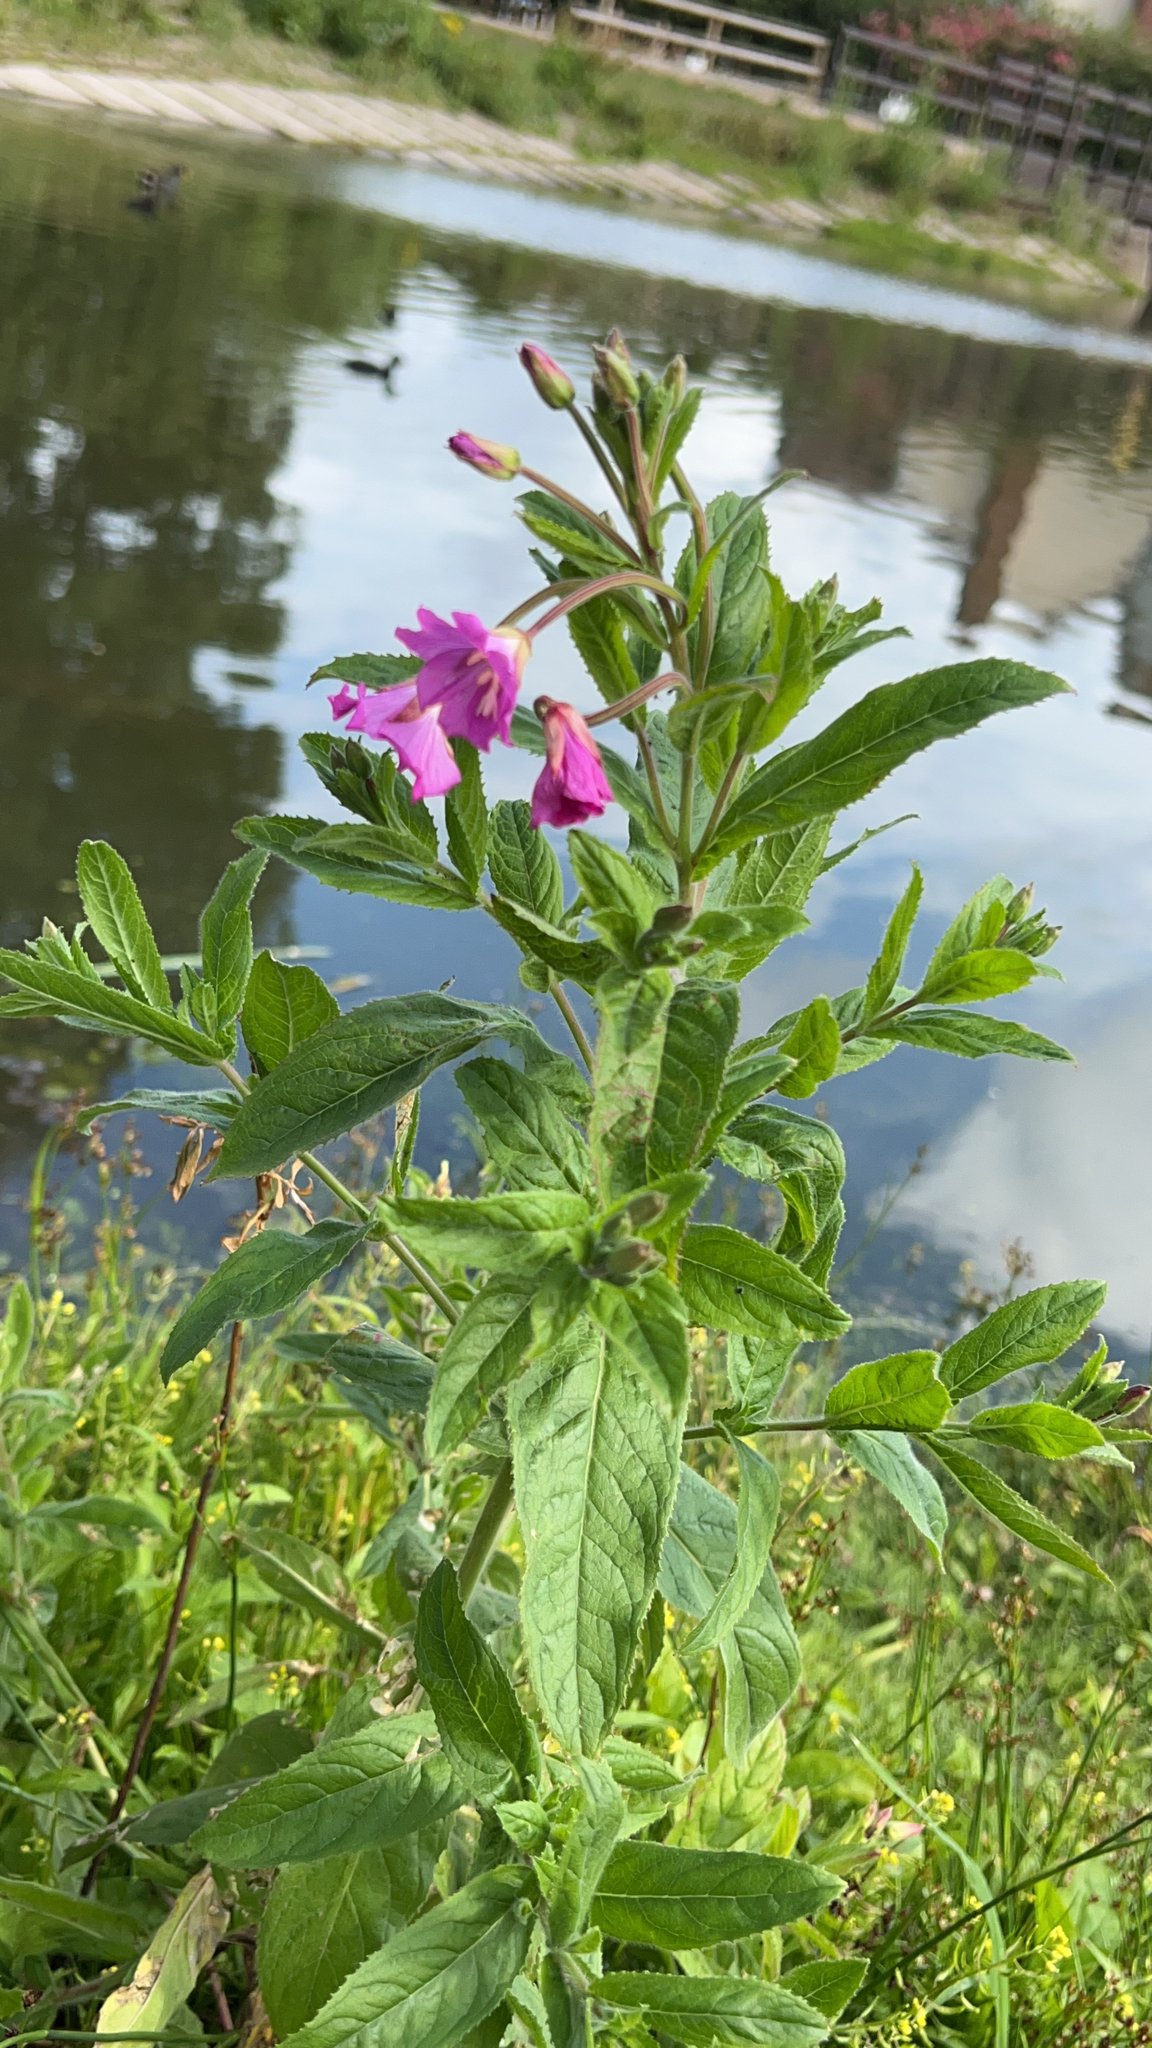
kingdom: Plantae
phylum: Tracheophyta
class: Magnoliopsida
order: Myrtales
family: Onagraceae
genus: Epilobium
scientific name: Epilobium hirsutum
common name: Great willowherb
